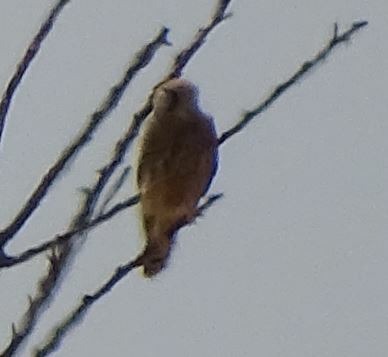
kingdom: Animalia
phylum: Chordata
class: Aves
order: Falconiformes
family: Falconidae
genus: Falco
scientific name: Falco tinnunculus
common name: Common kestrel
